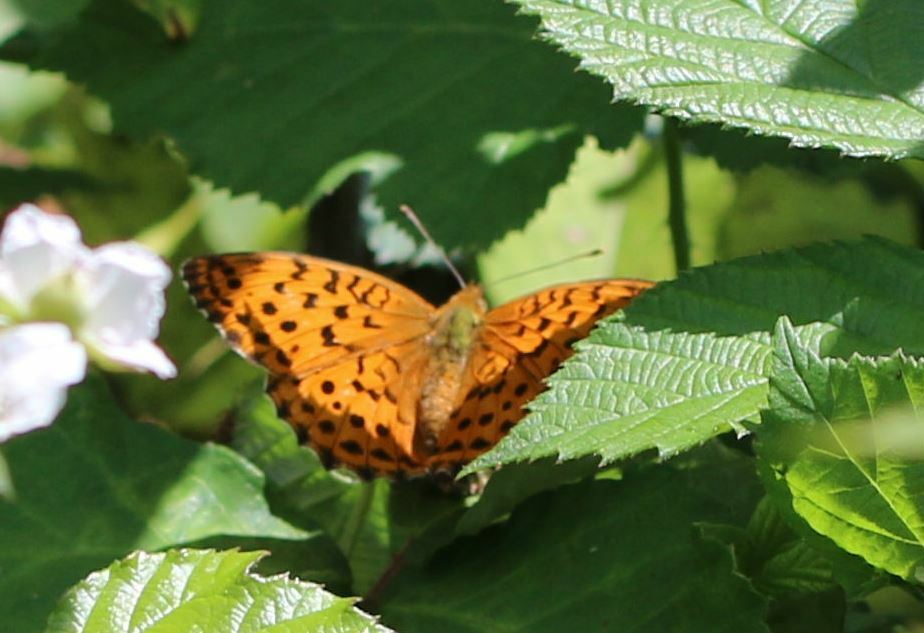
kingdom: Animalia
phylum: Arthropoda
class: Insecta
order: Lepidoptera
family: Nymphalidae
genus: Brenthis
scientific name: Brenthis daphne
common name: Marbled fritillary
